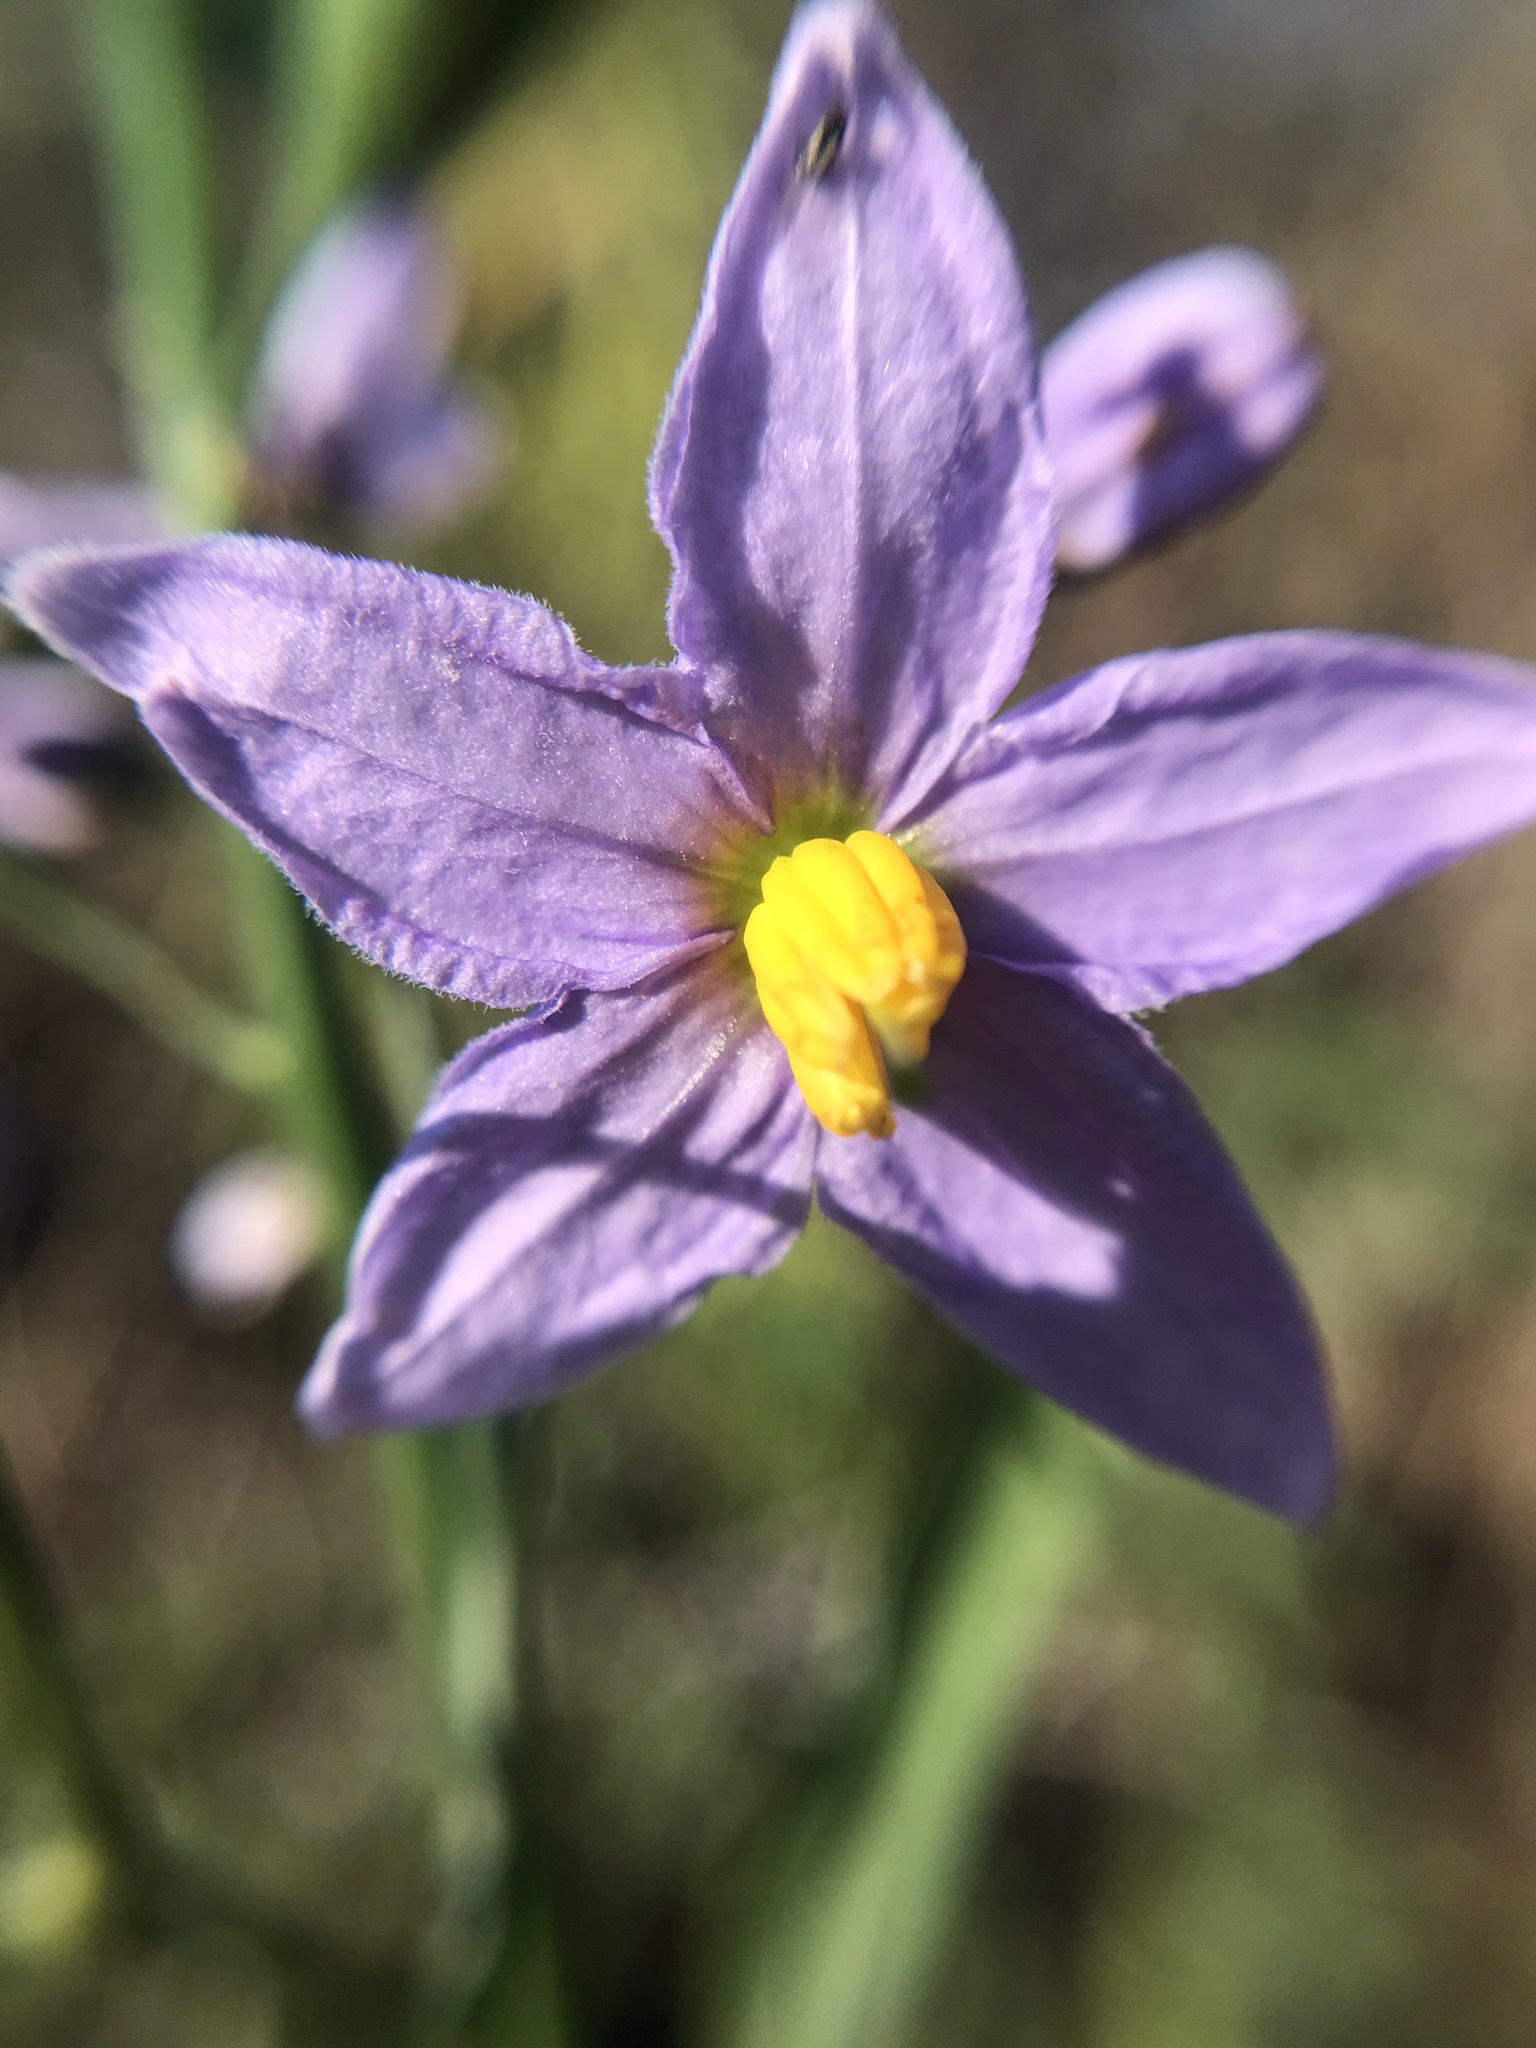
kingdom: Plantae
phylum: Tracheophyta
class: Magnoliopsida
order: Solanales
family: Solanaceae
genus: Solanum
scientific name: Solanum amygdalifolium
